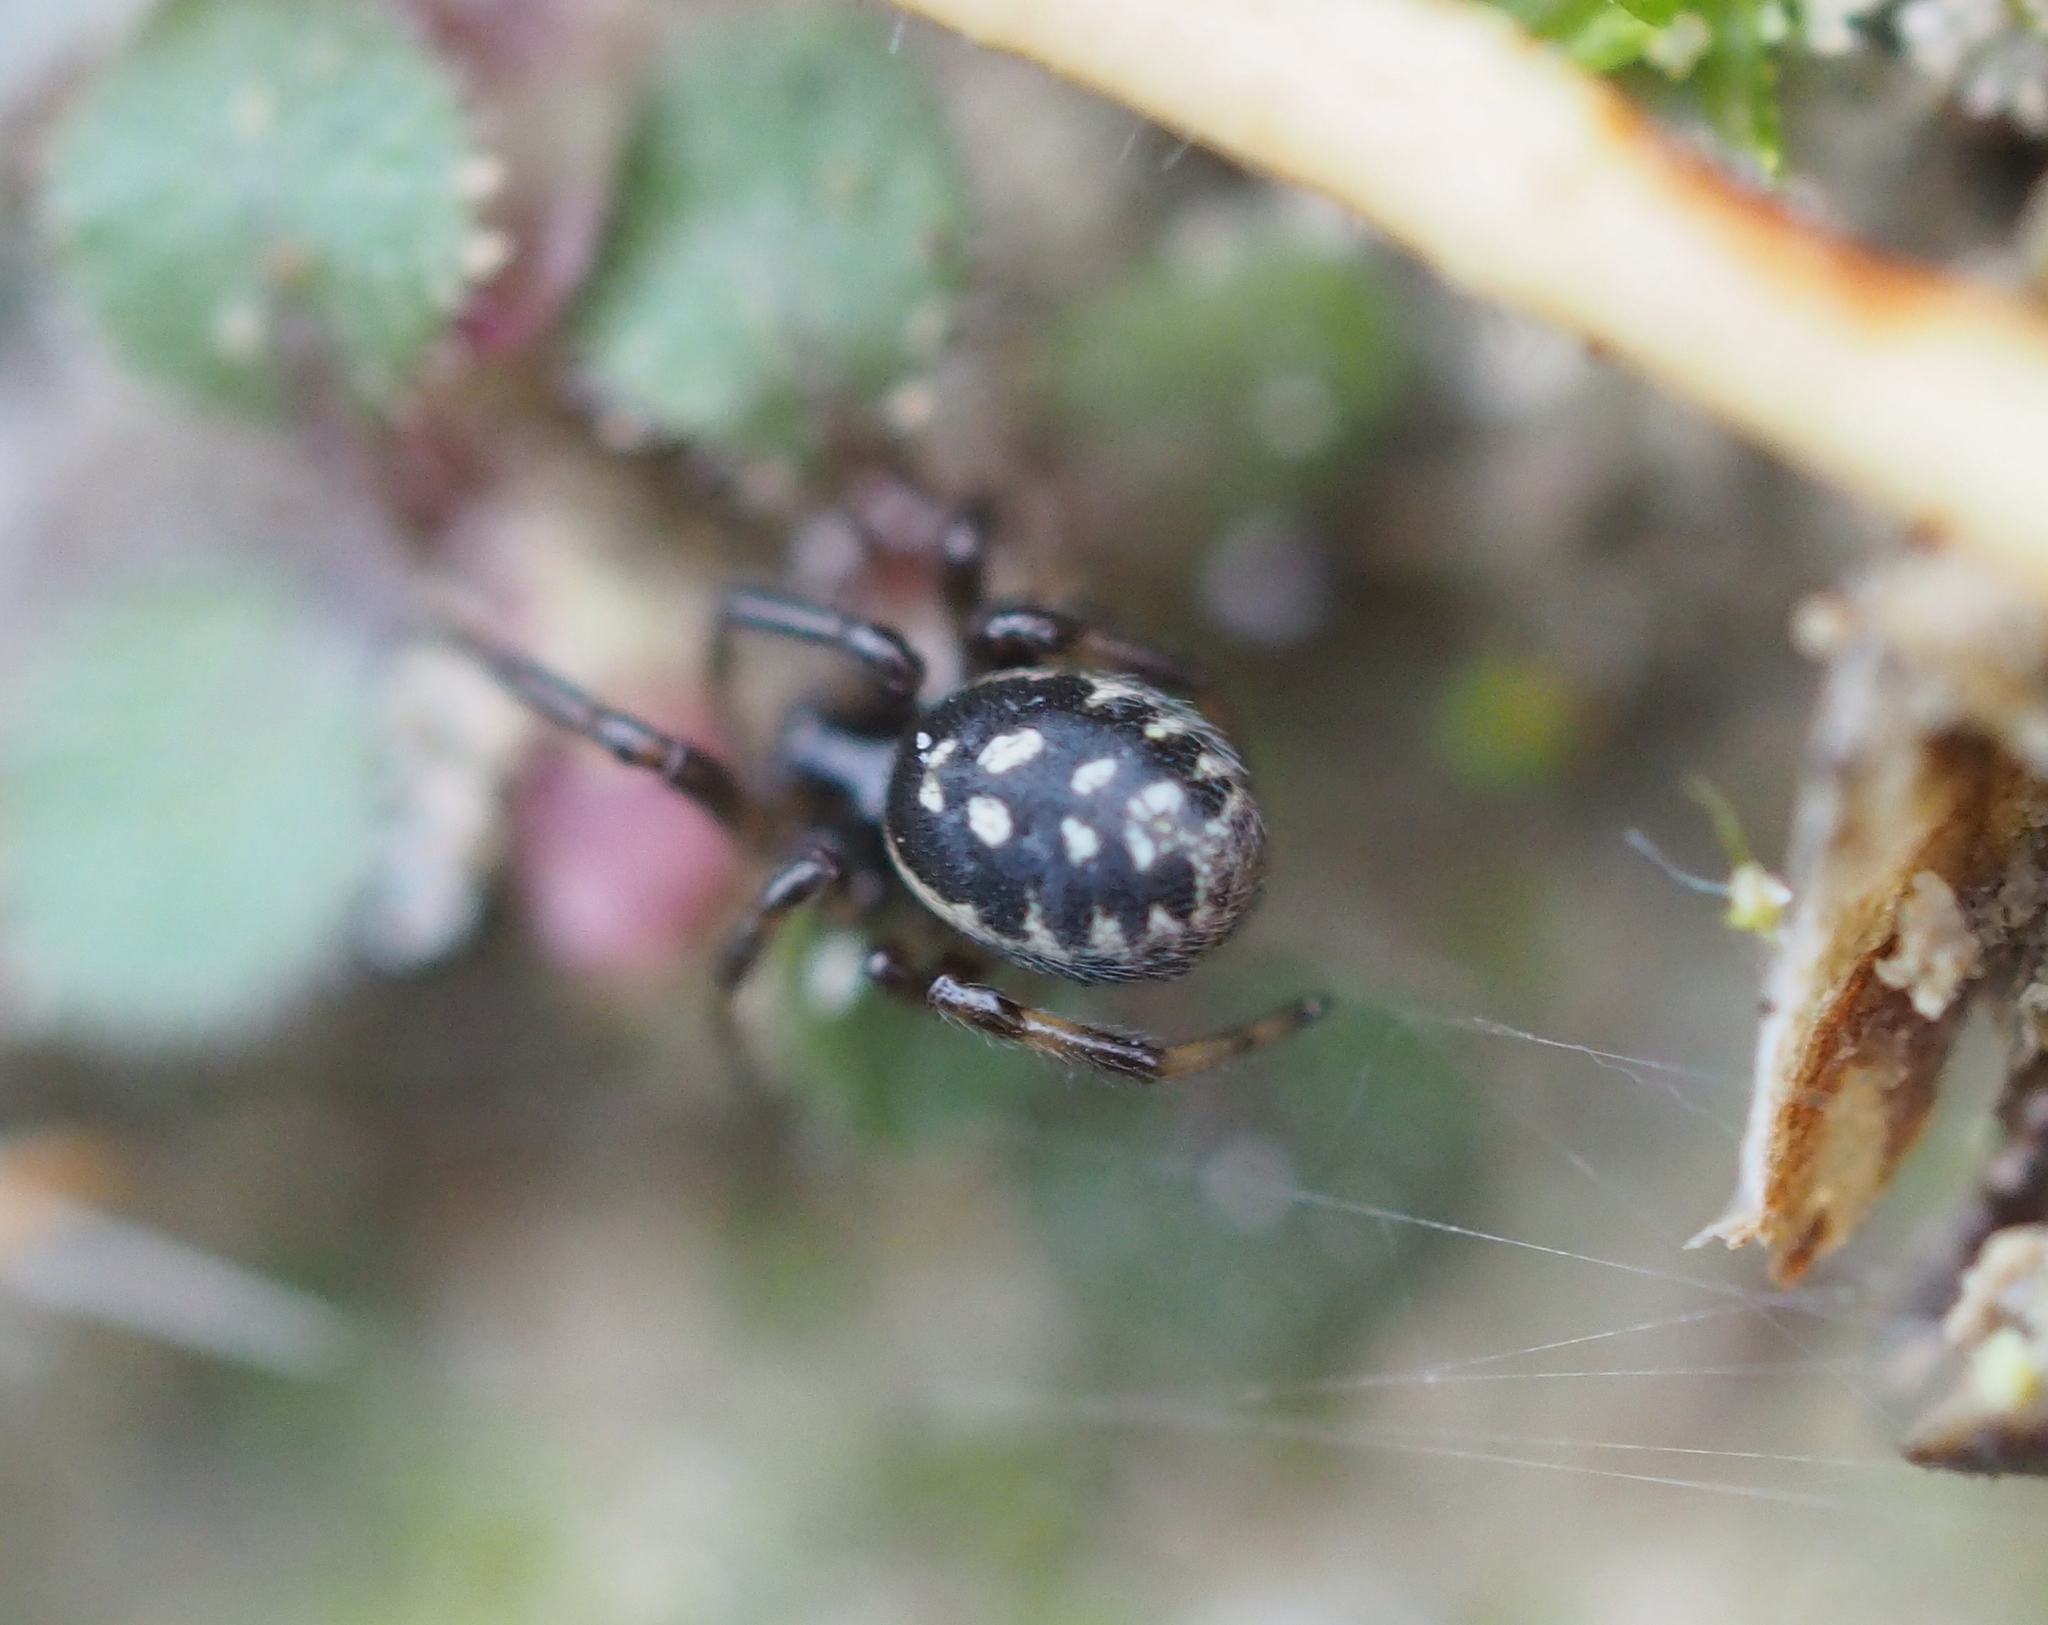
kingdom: Animalia
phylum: Arthropoda
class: Arachnida
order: Araneae
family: Theridiidae
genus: Steatoda
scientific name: Steatoda albomaculata
